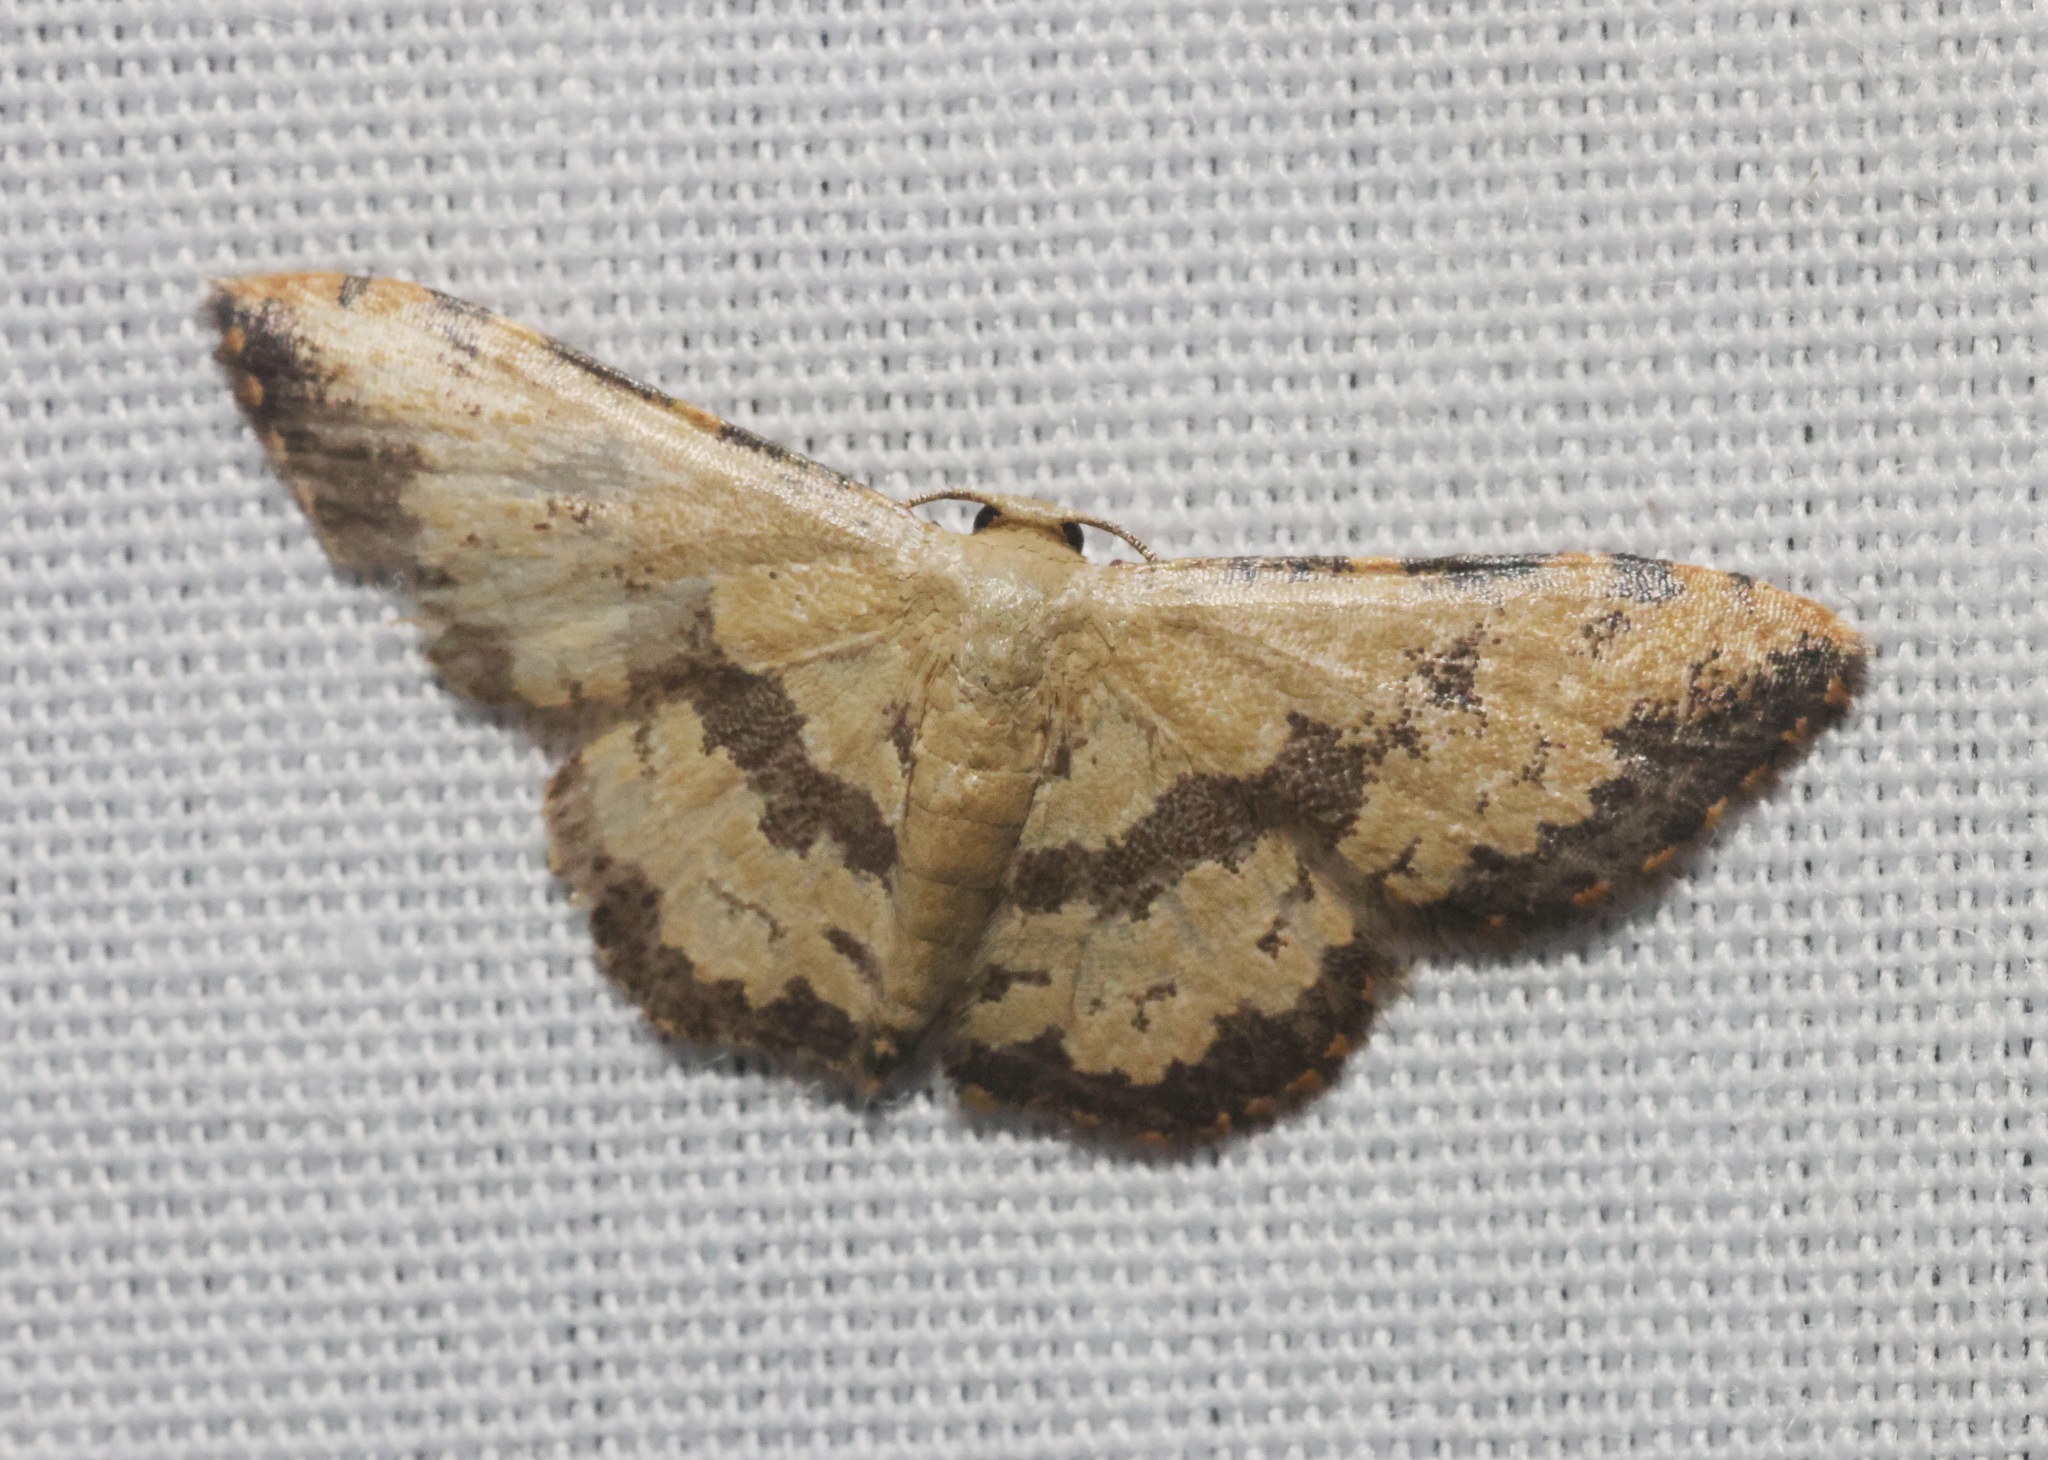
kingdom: Animalia
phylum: Arthropoda
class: Insecta
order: Lepidoptera
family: Geometridae
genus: Idaea
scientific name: Idaea phaeocrossa
